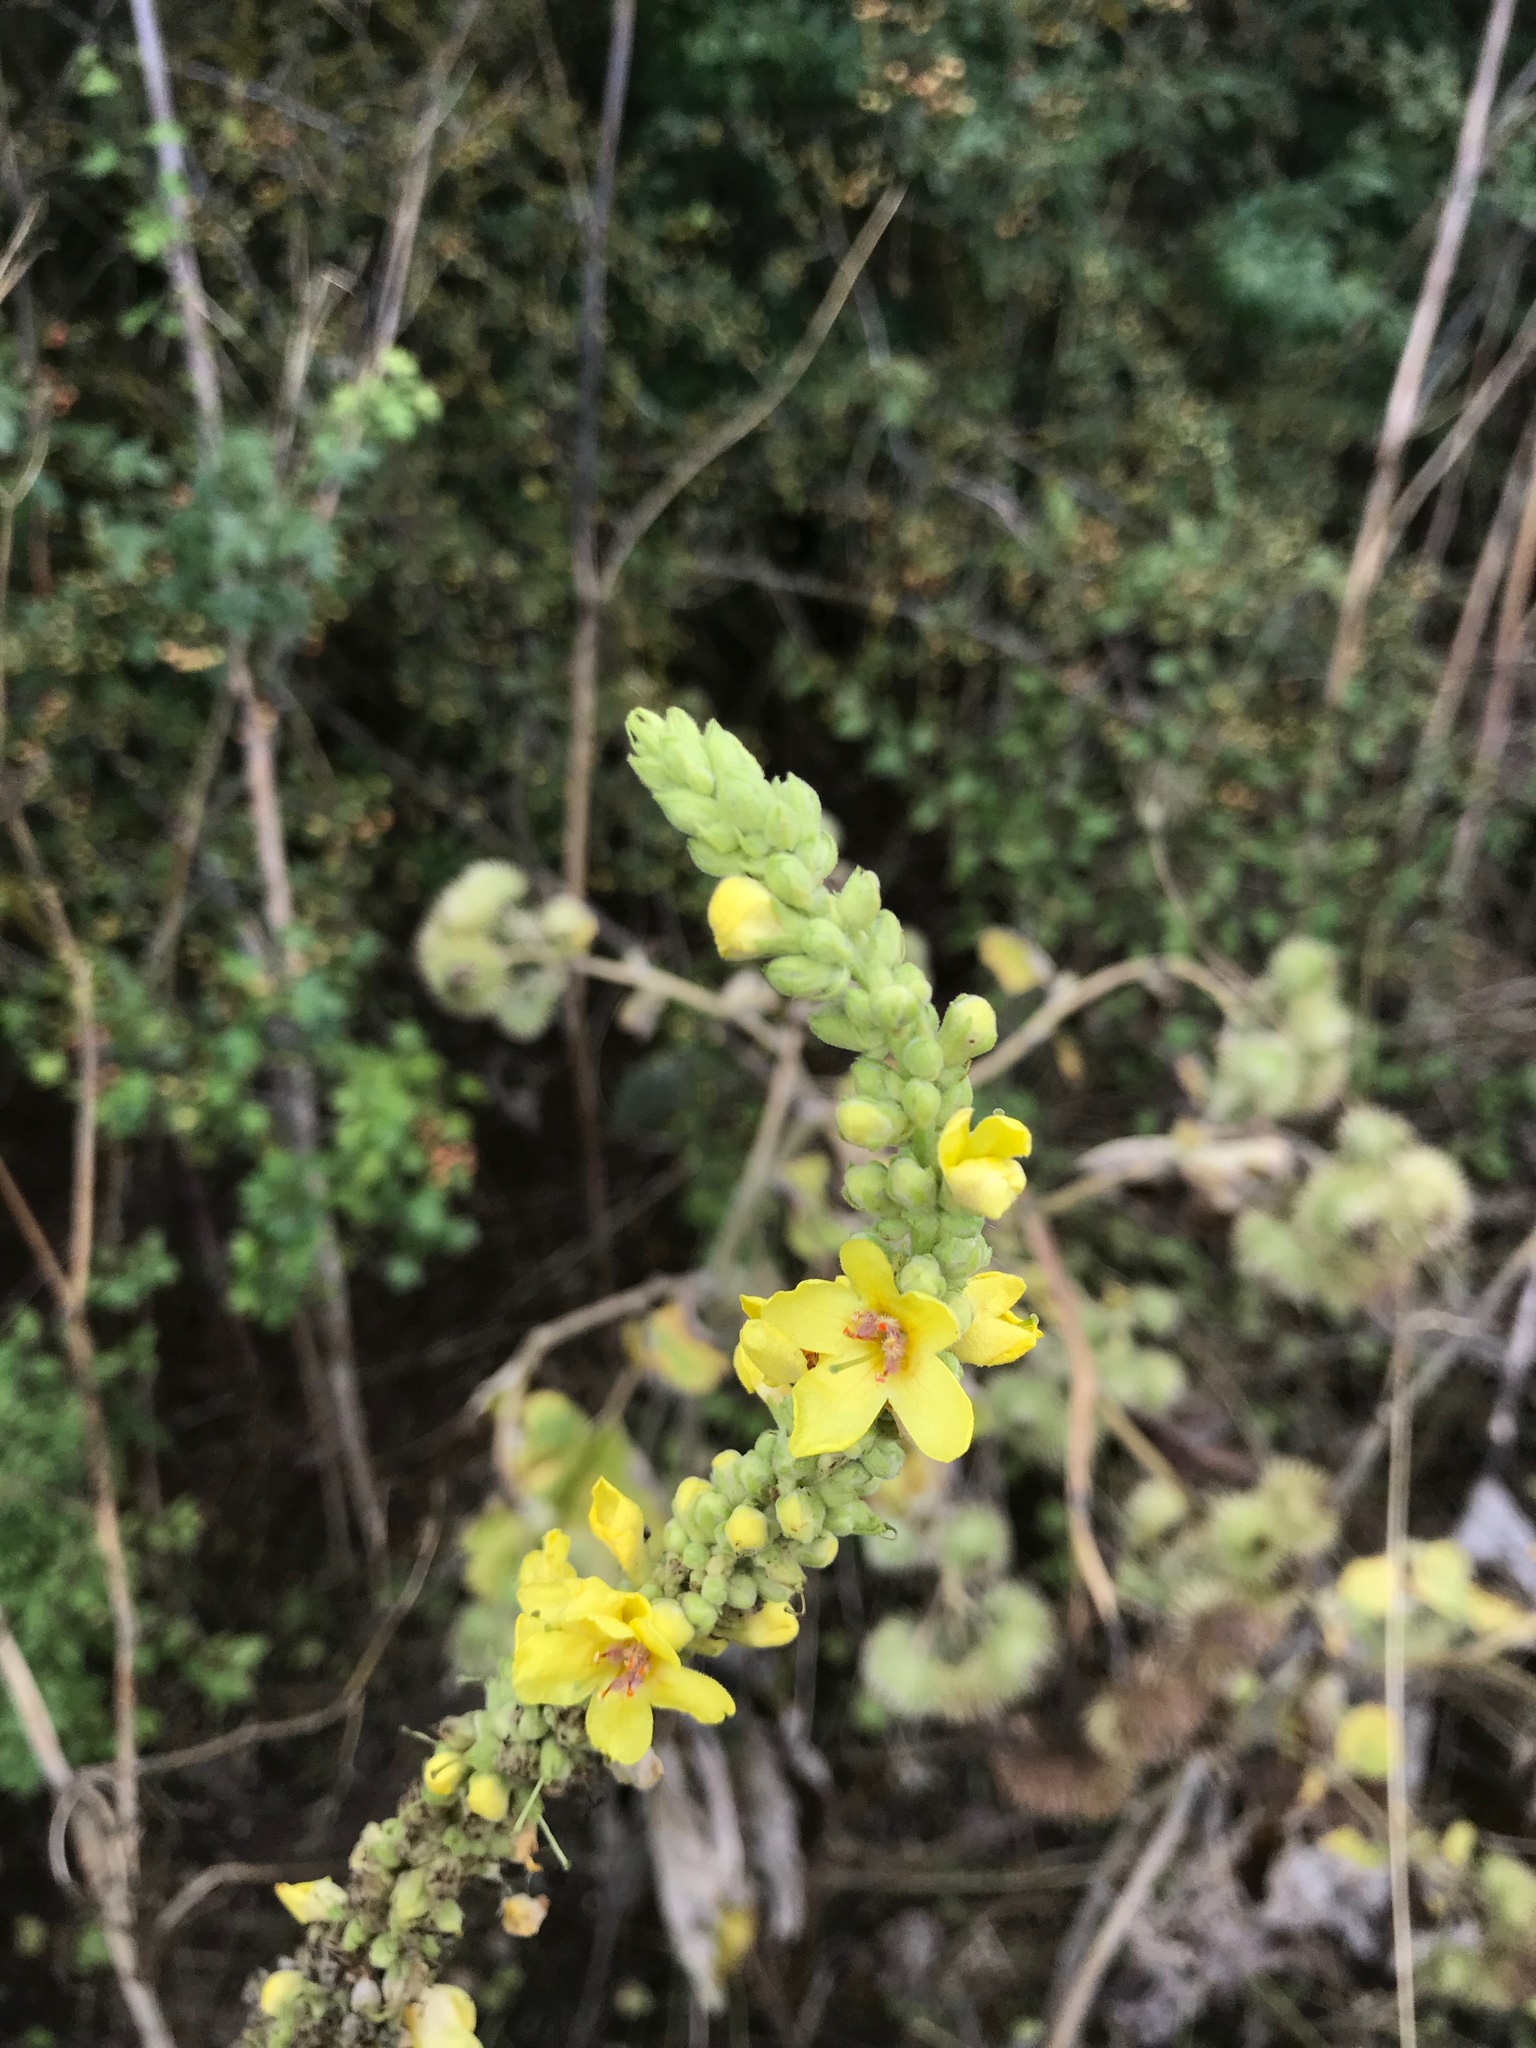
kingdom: Plantae
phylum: Tracheophyta
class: Magnoliopsida
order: Lamiales
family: Scrophulariaceae
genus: Verbascum
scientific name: Verbascum thapsus
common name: Common mullein
